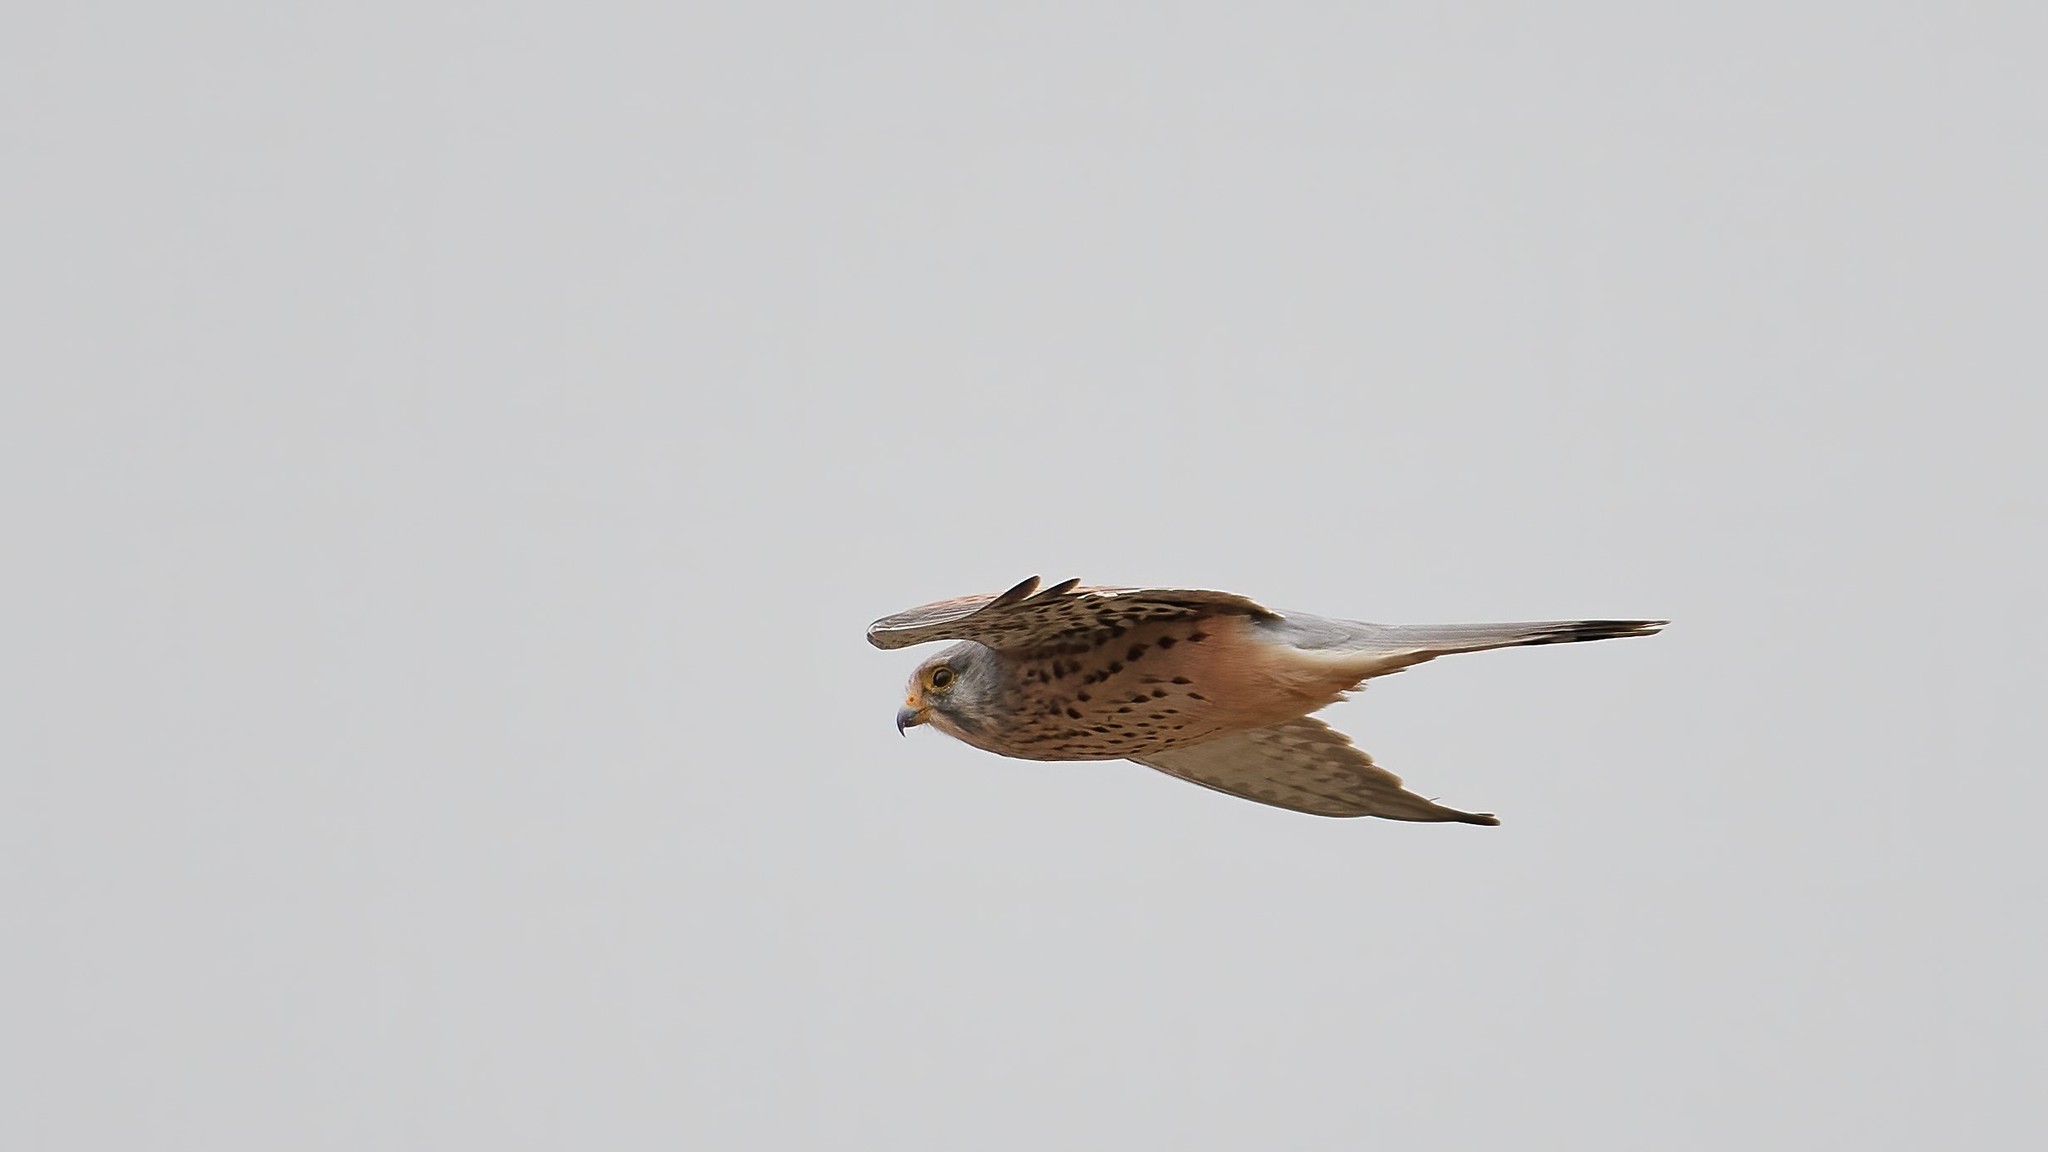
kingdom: Animalia
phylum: Chordata
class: Aves
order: Falconiformes
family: Falconidae
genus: Falco
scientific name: Falco tinnunculus
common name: Common kestrel
